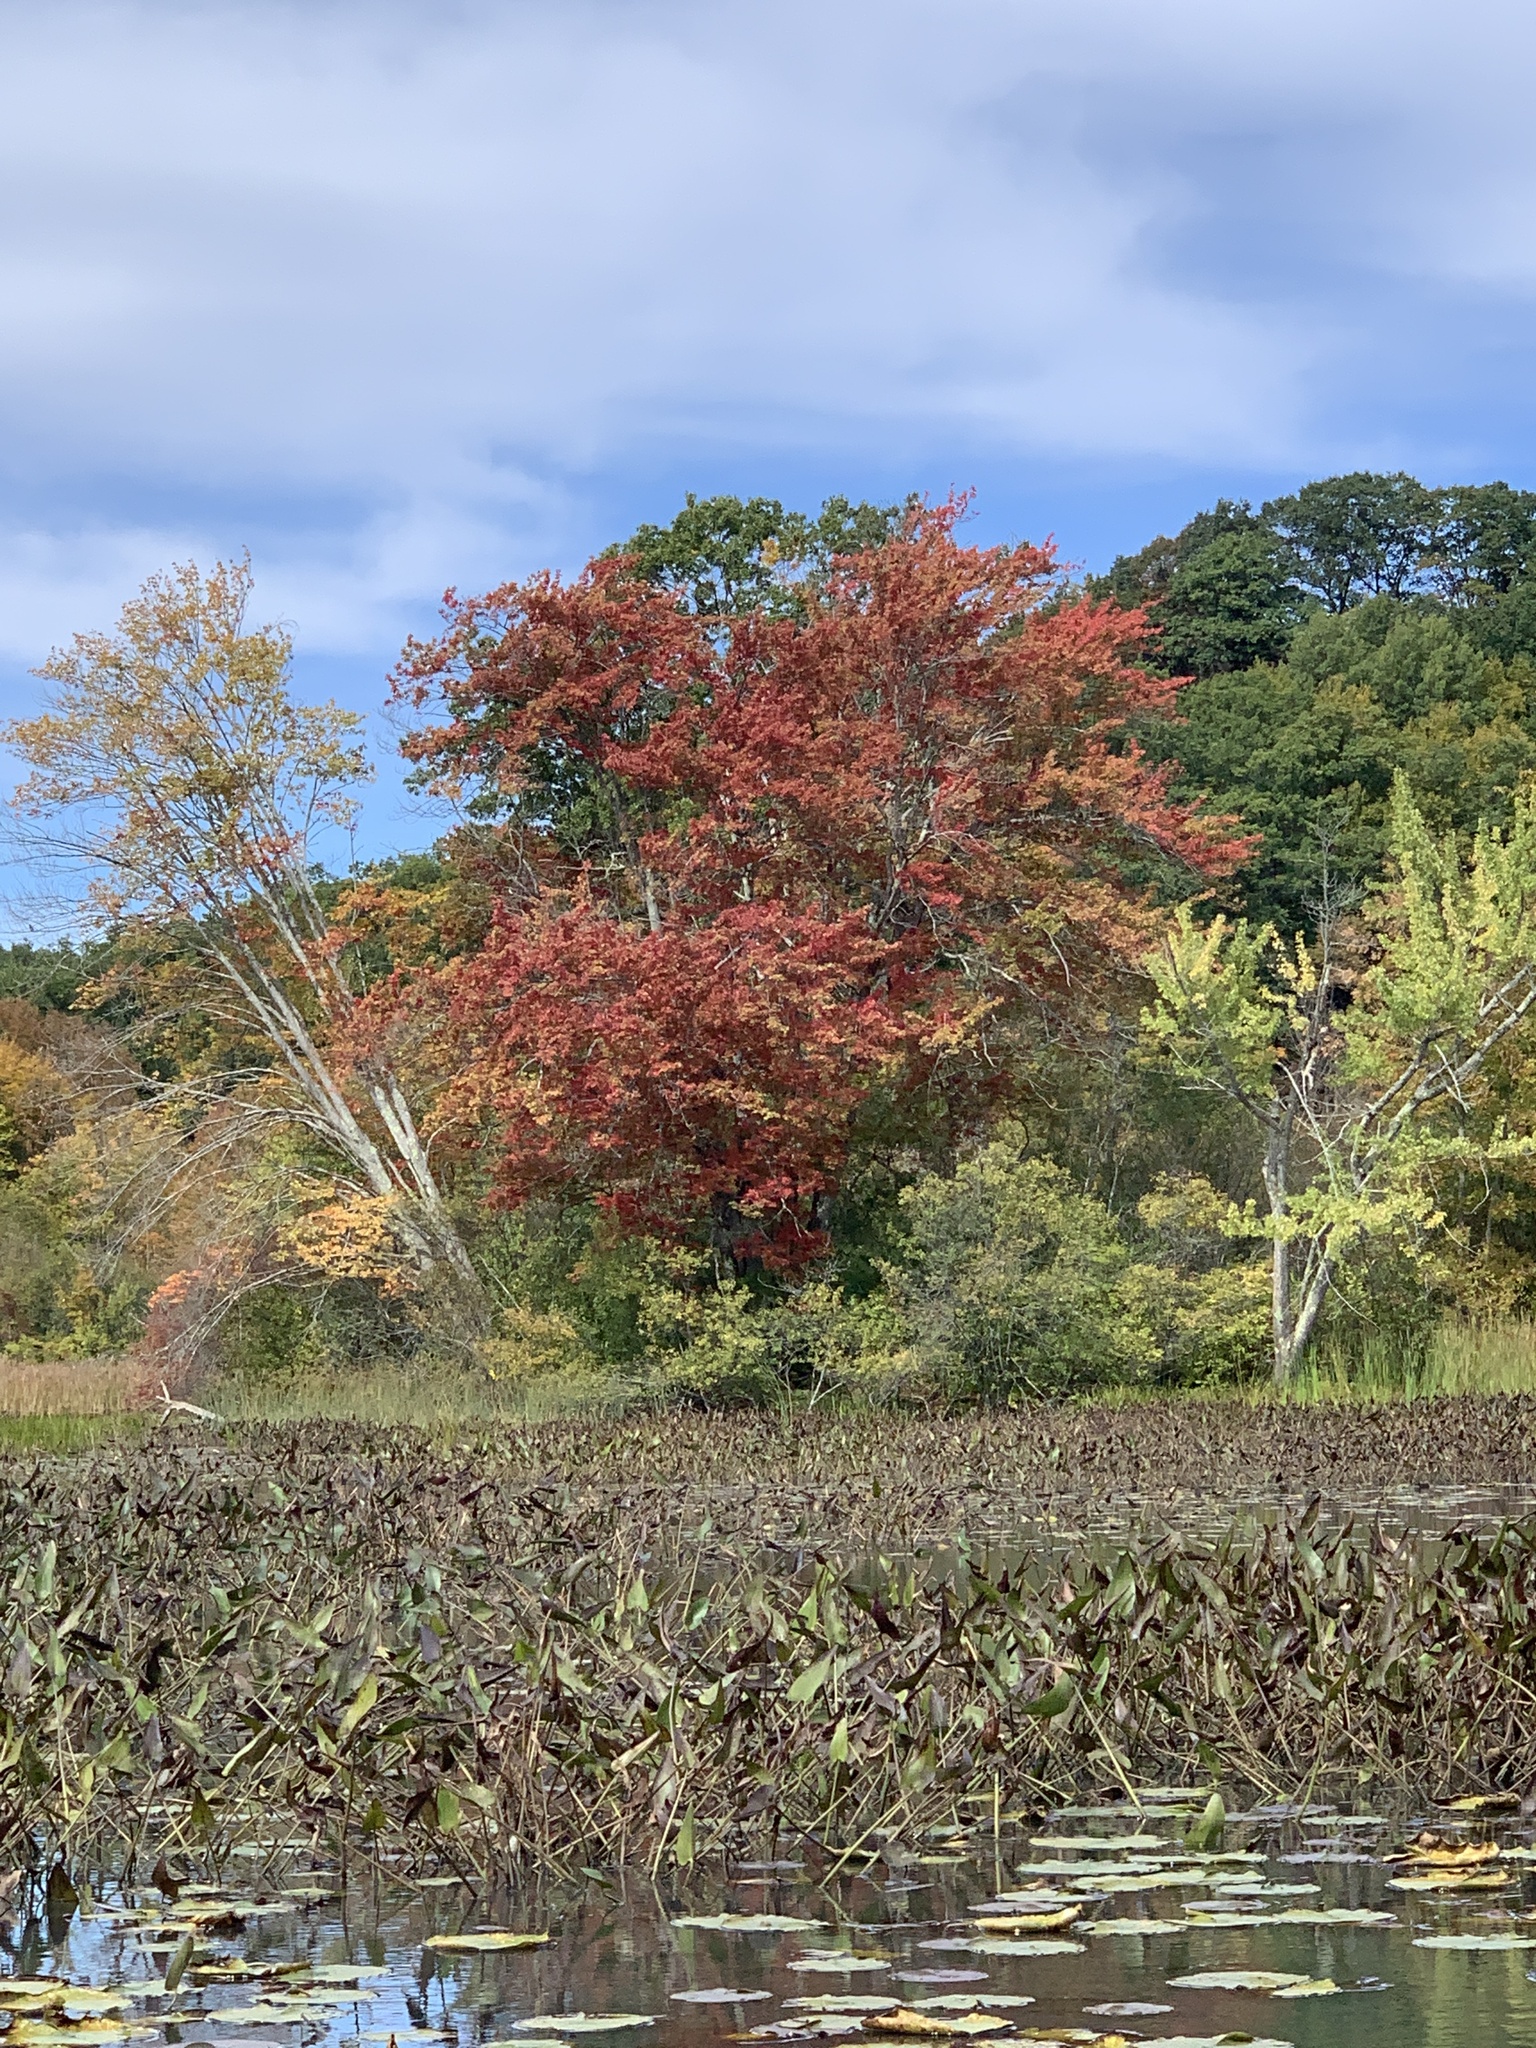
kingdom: Plantae
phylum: Tracheophyta
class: Magnoliopsida
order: Sapindales
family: Sapindaceae
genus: Acer
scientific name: Acer rubrum
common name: Red maple
